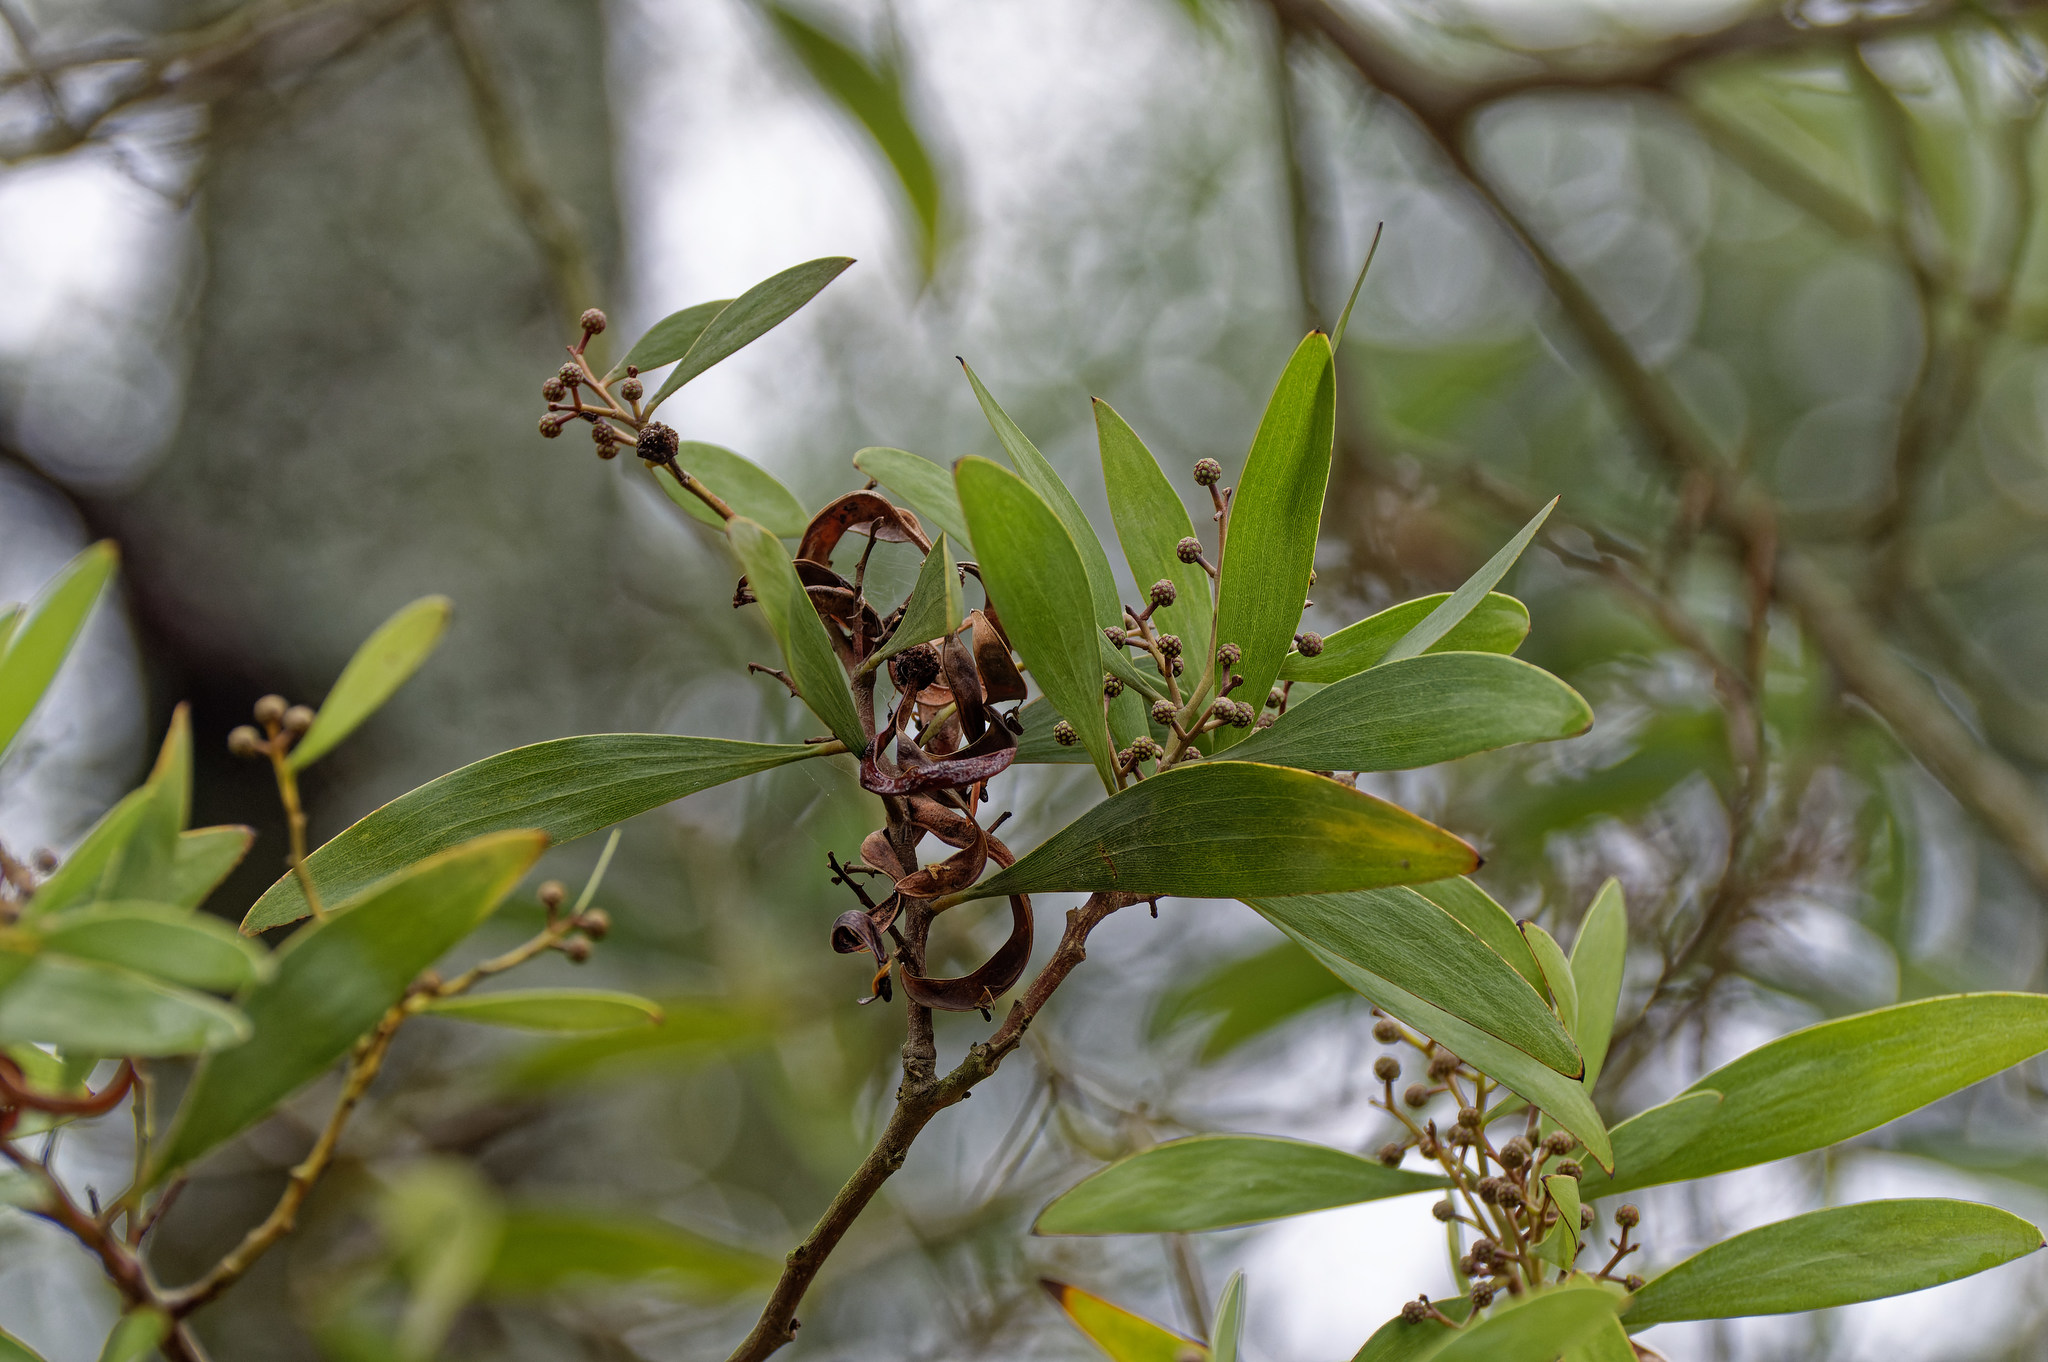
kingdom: Plantae
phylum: Tracheophyta
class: Magnoliopsida
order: Fabales
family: Fabaceae
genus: Acacia
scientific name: Acacia melanoxylon
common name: Blackwood
